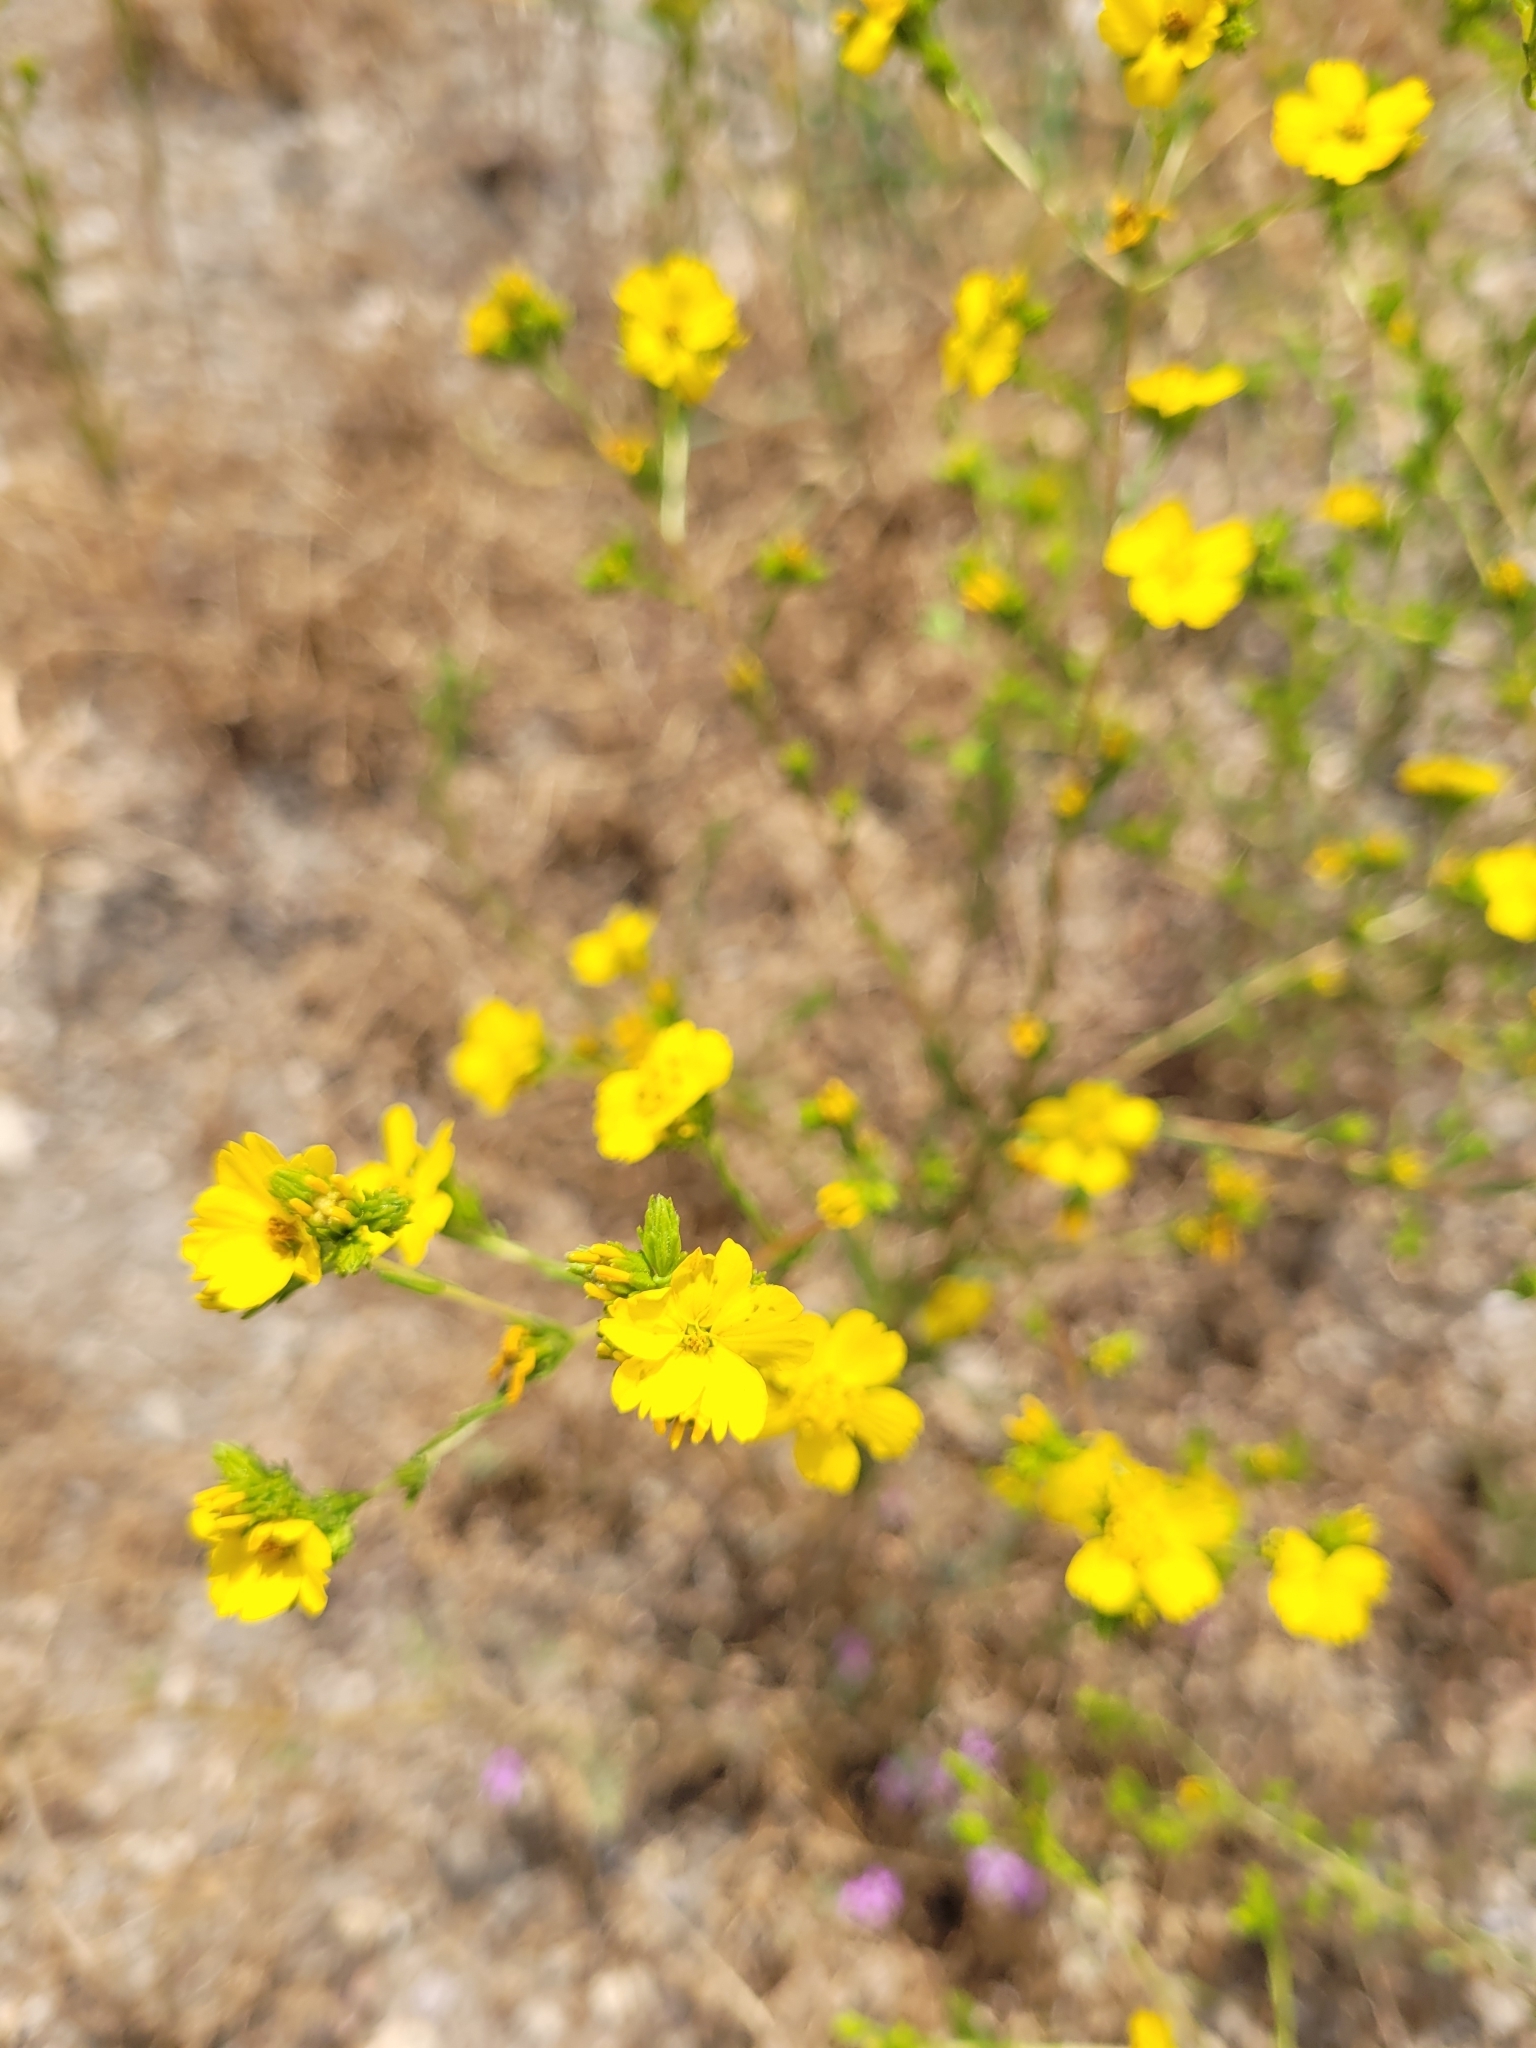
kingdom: Plantae
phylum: Tracheophyta
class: Magnoliopsida
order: Asterales
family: Asteraceae
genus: Deinandra
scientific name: Deinandra fasciculata
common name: Clustered tarweed
